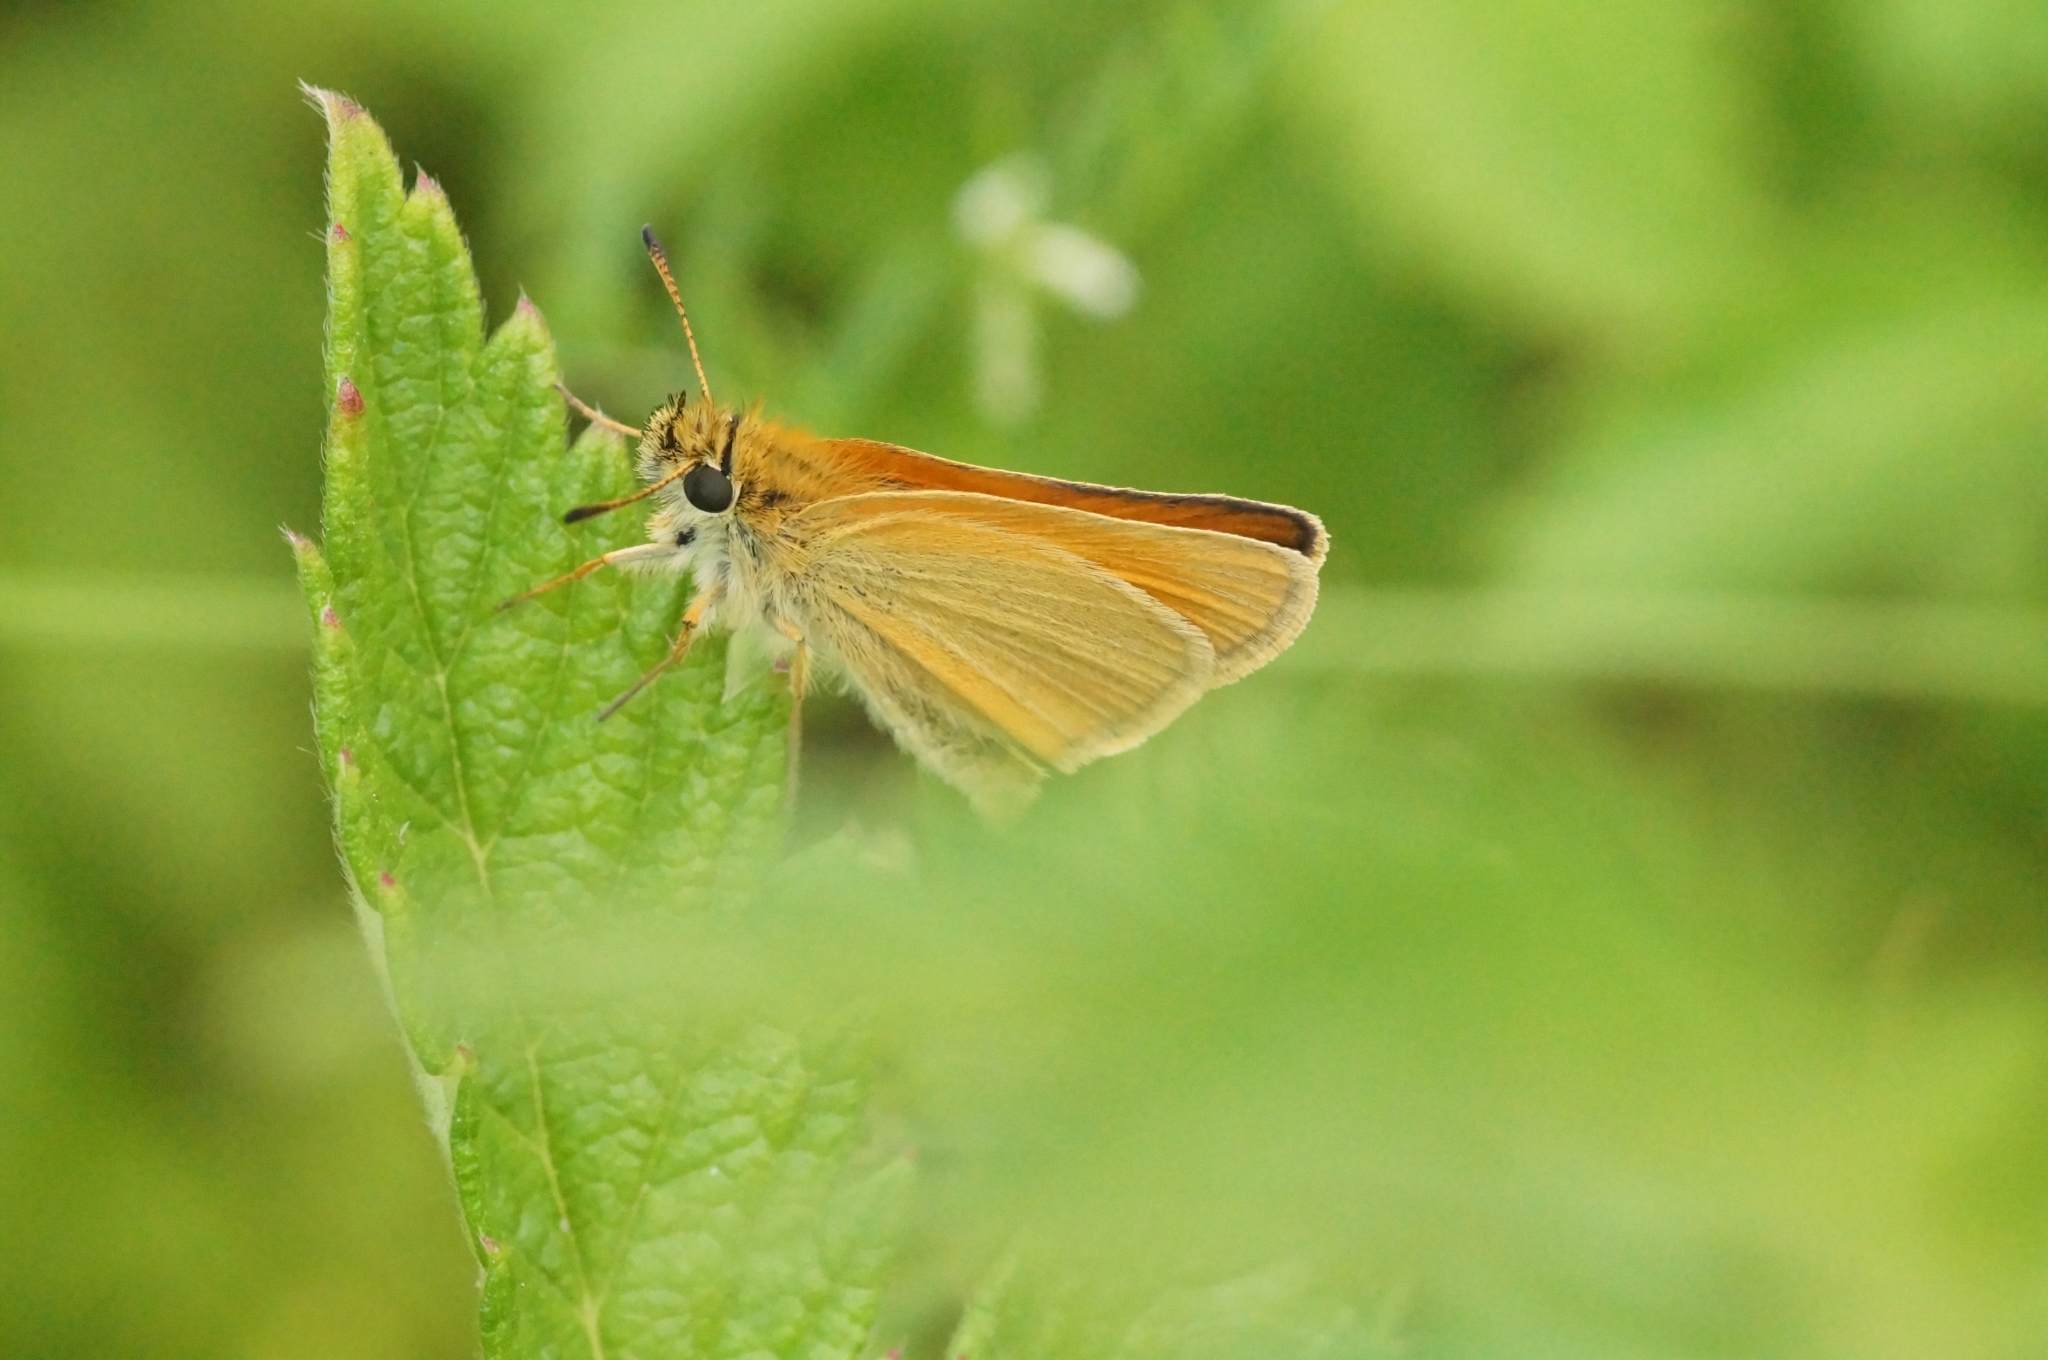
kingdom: Animalia
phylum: Arthropoda
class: Insecta
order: Lepidoptera
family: Hesperiidae
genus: Thymelicus
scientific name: Thymelicus lineola
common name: Essex skipper
